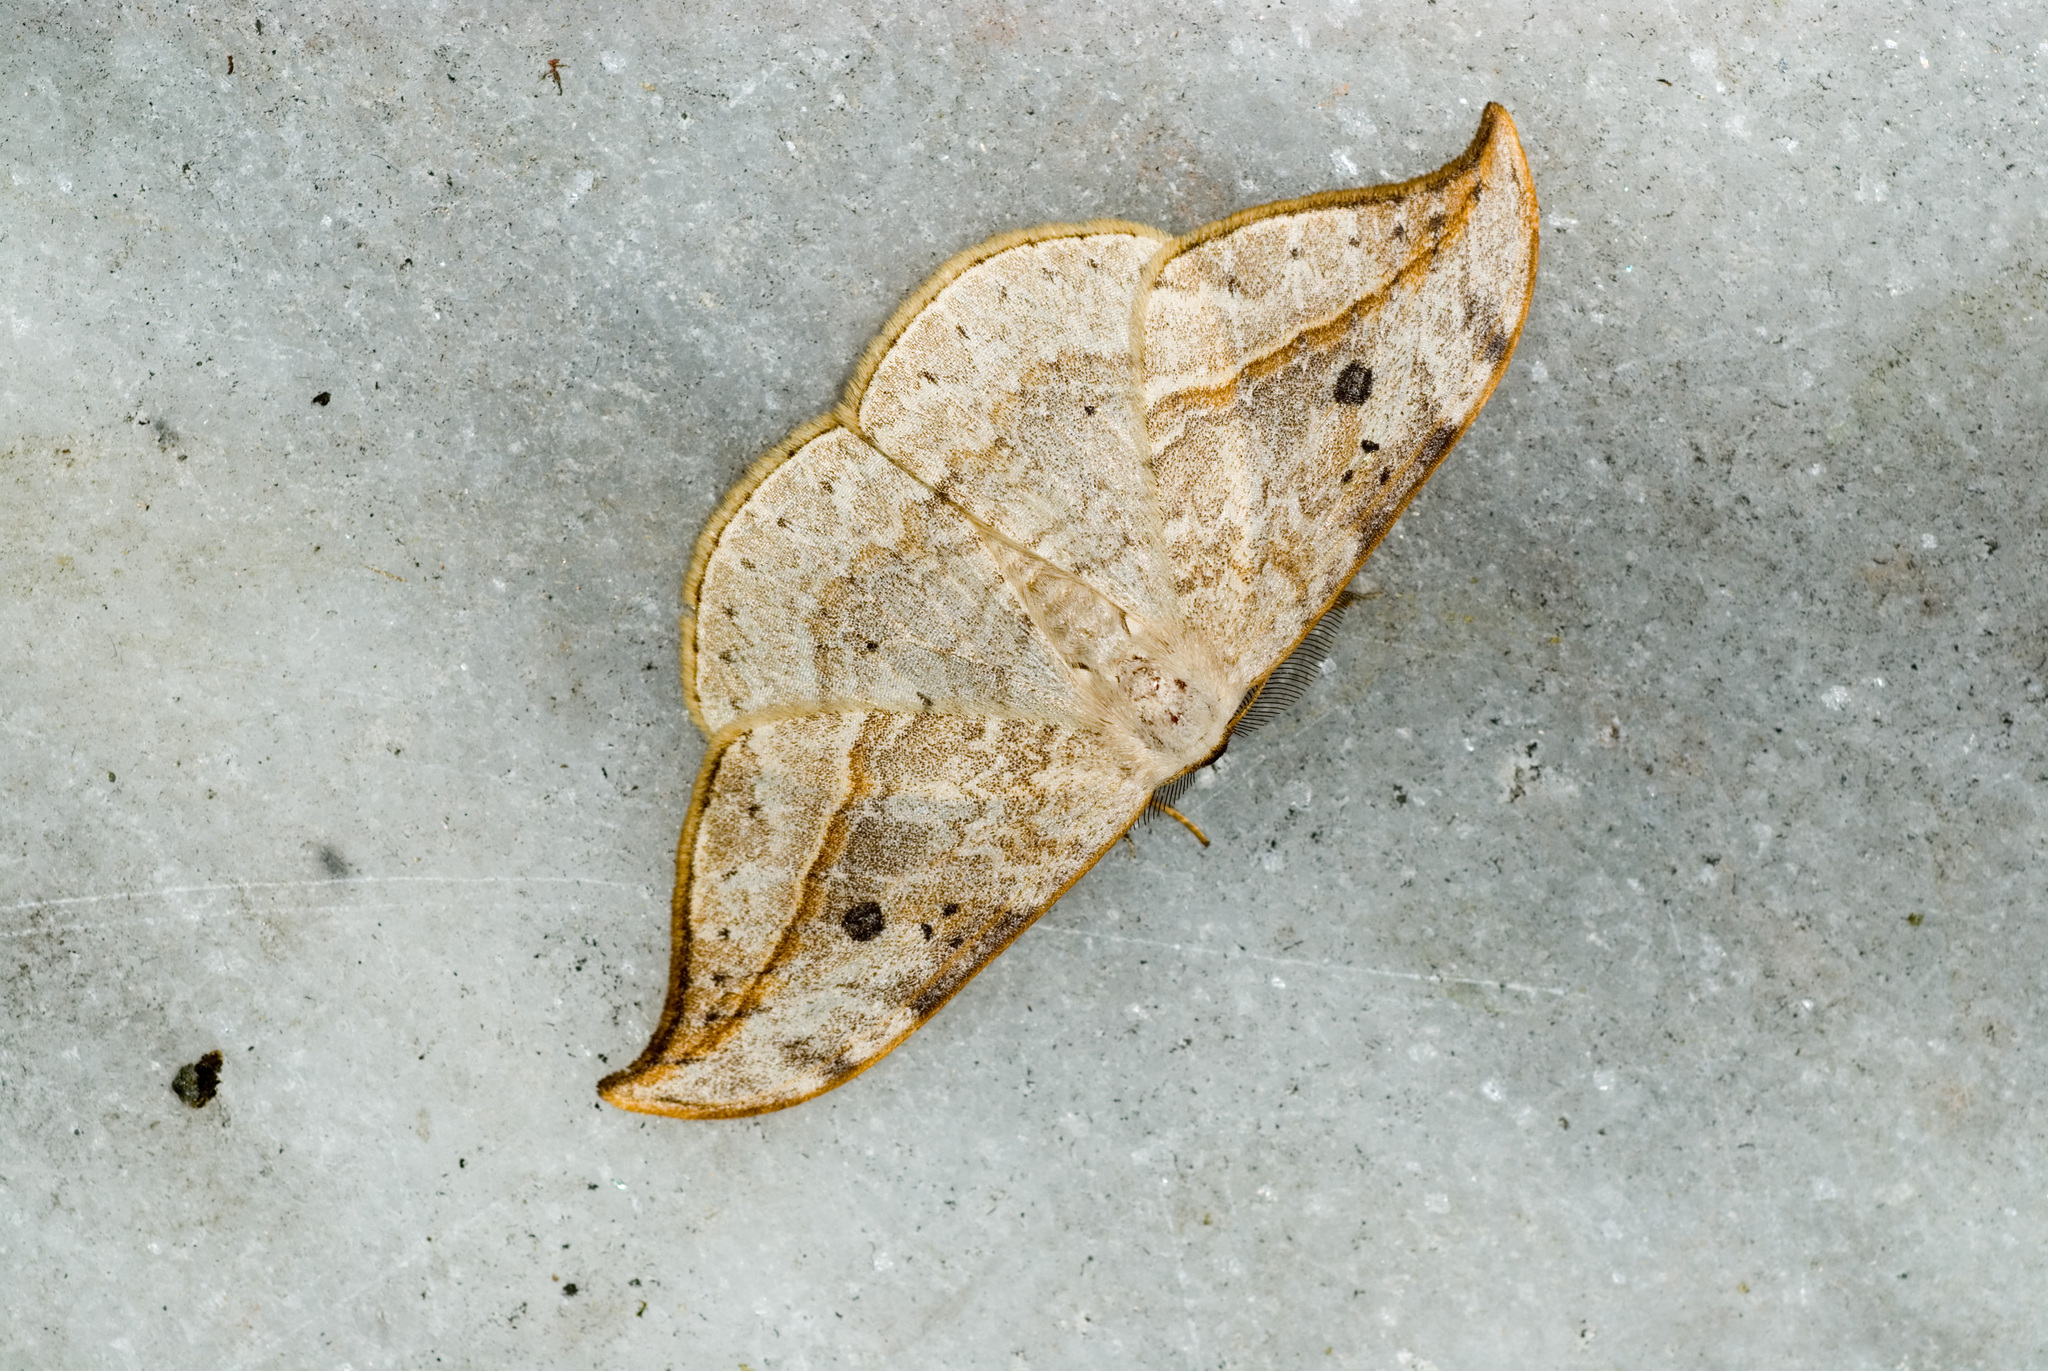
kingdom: Animalia
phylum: Arthropoda
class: Insecta
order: Lepidoptera
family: Drepanidae
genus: Drepana
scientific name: Drepana pallida
